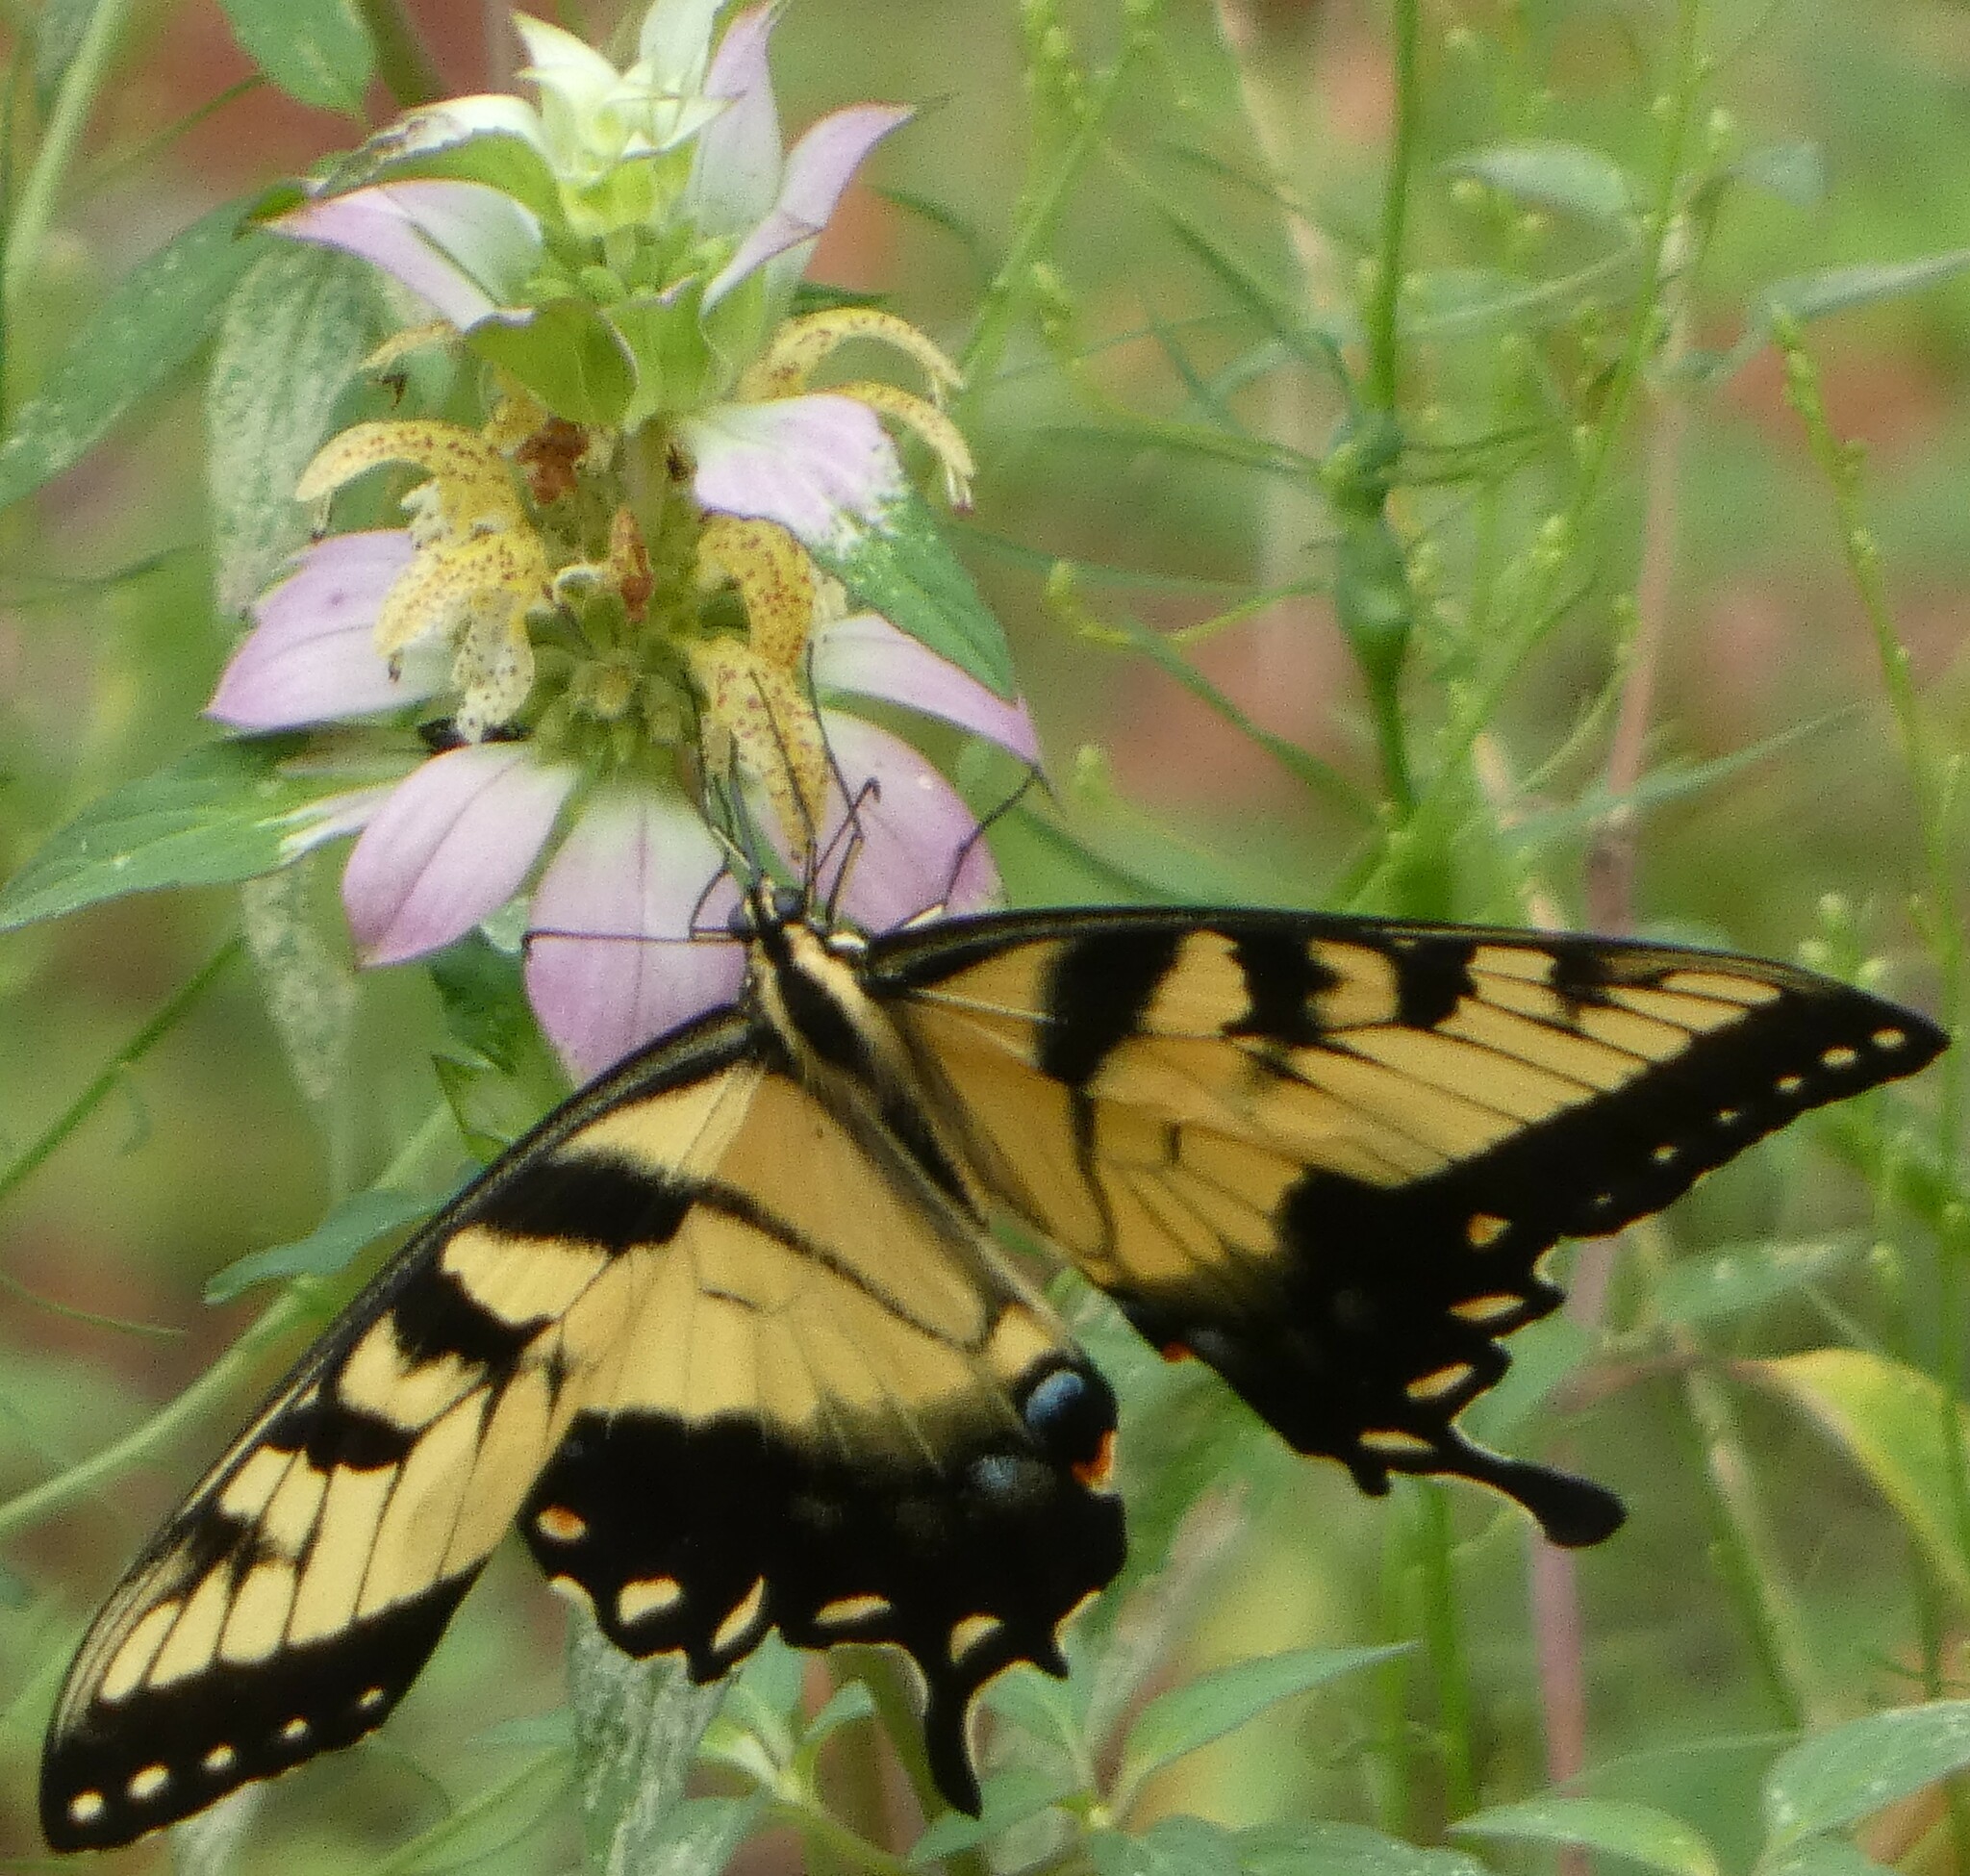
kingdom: Animalia
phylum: Arthropoda
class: Insecta
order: Lepidoptera
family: Papilionidae
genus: Papilio
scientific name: Papilio glaucus
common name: Tiger swallowtail
